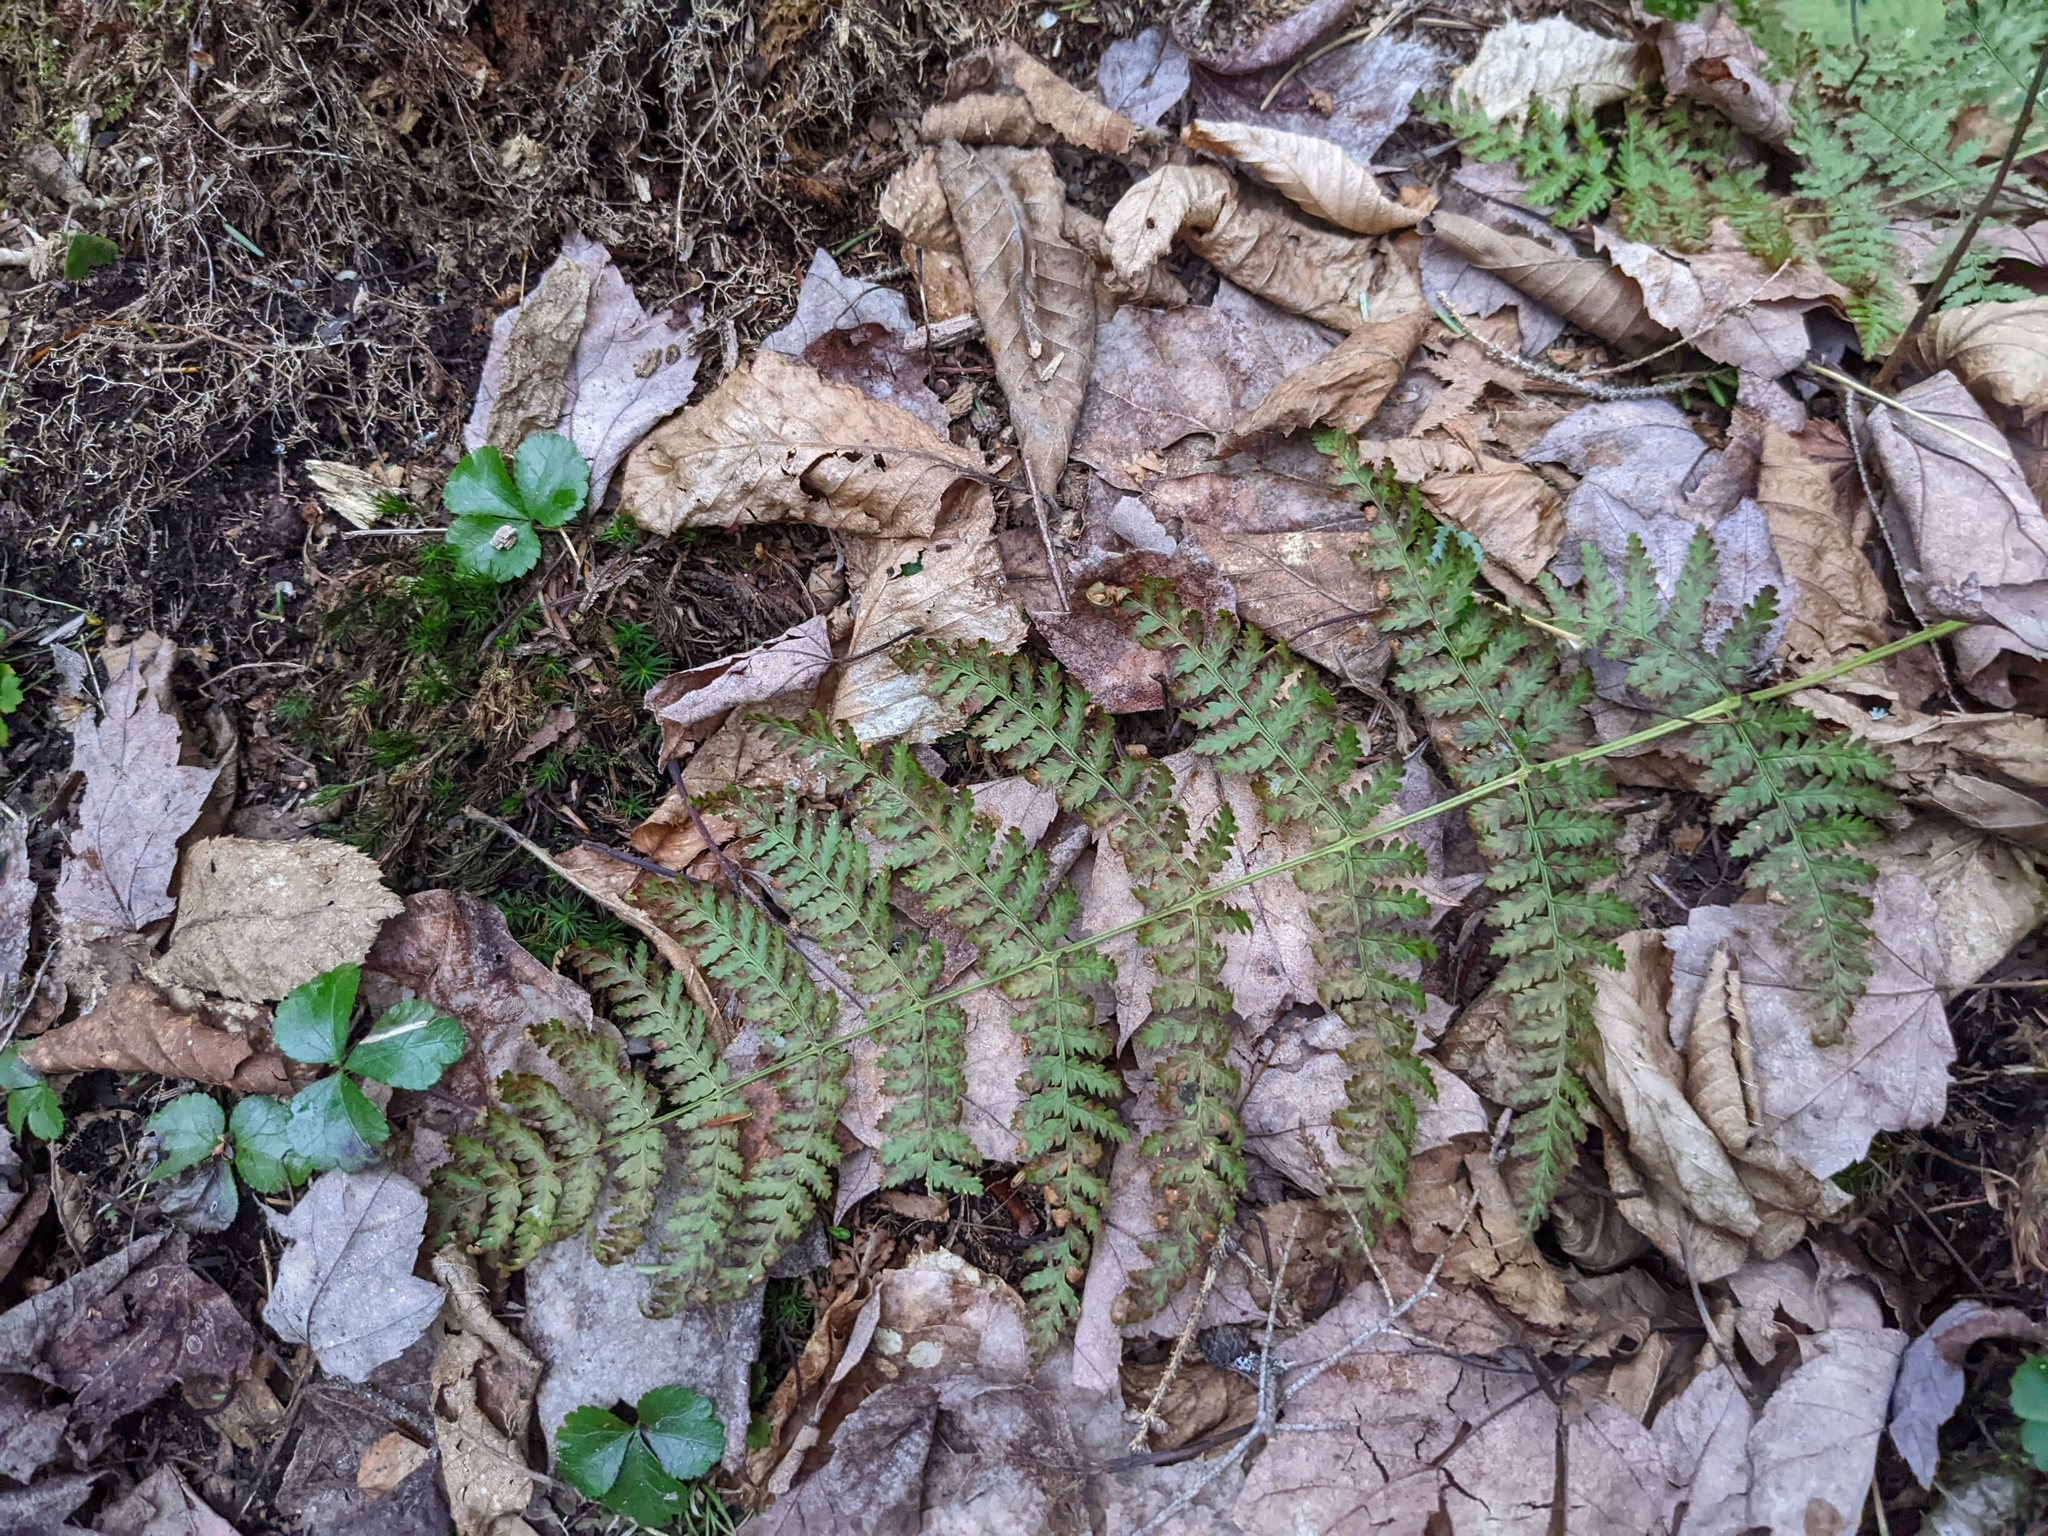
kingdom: Plantae
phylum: Tracheophyta
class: Magnoliopsida
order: Ranunculales
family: Ranunculaceae
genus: Coptis
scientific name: Coptis trifolia
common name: Canker-root
